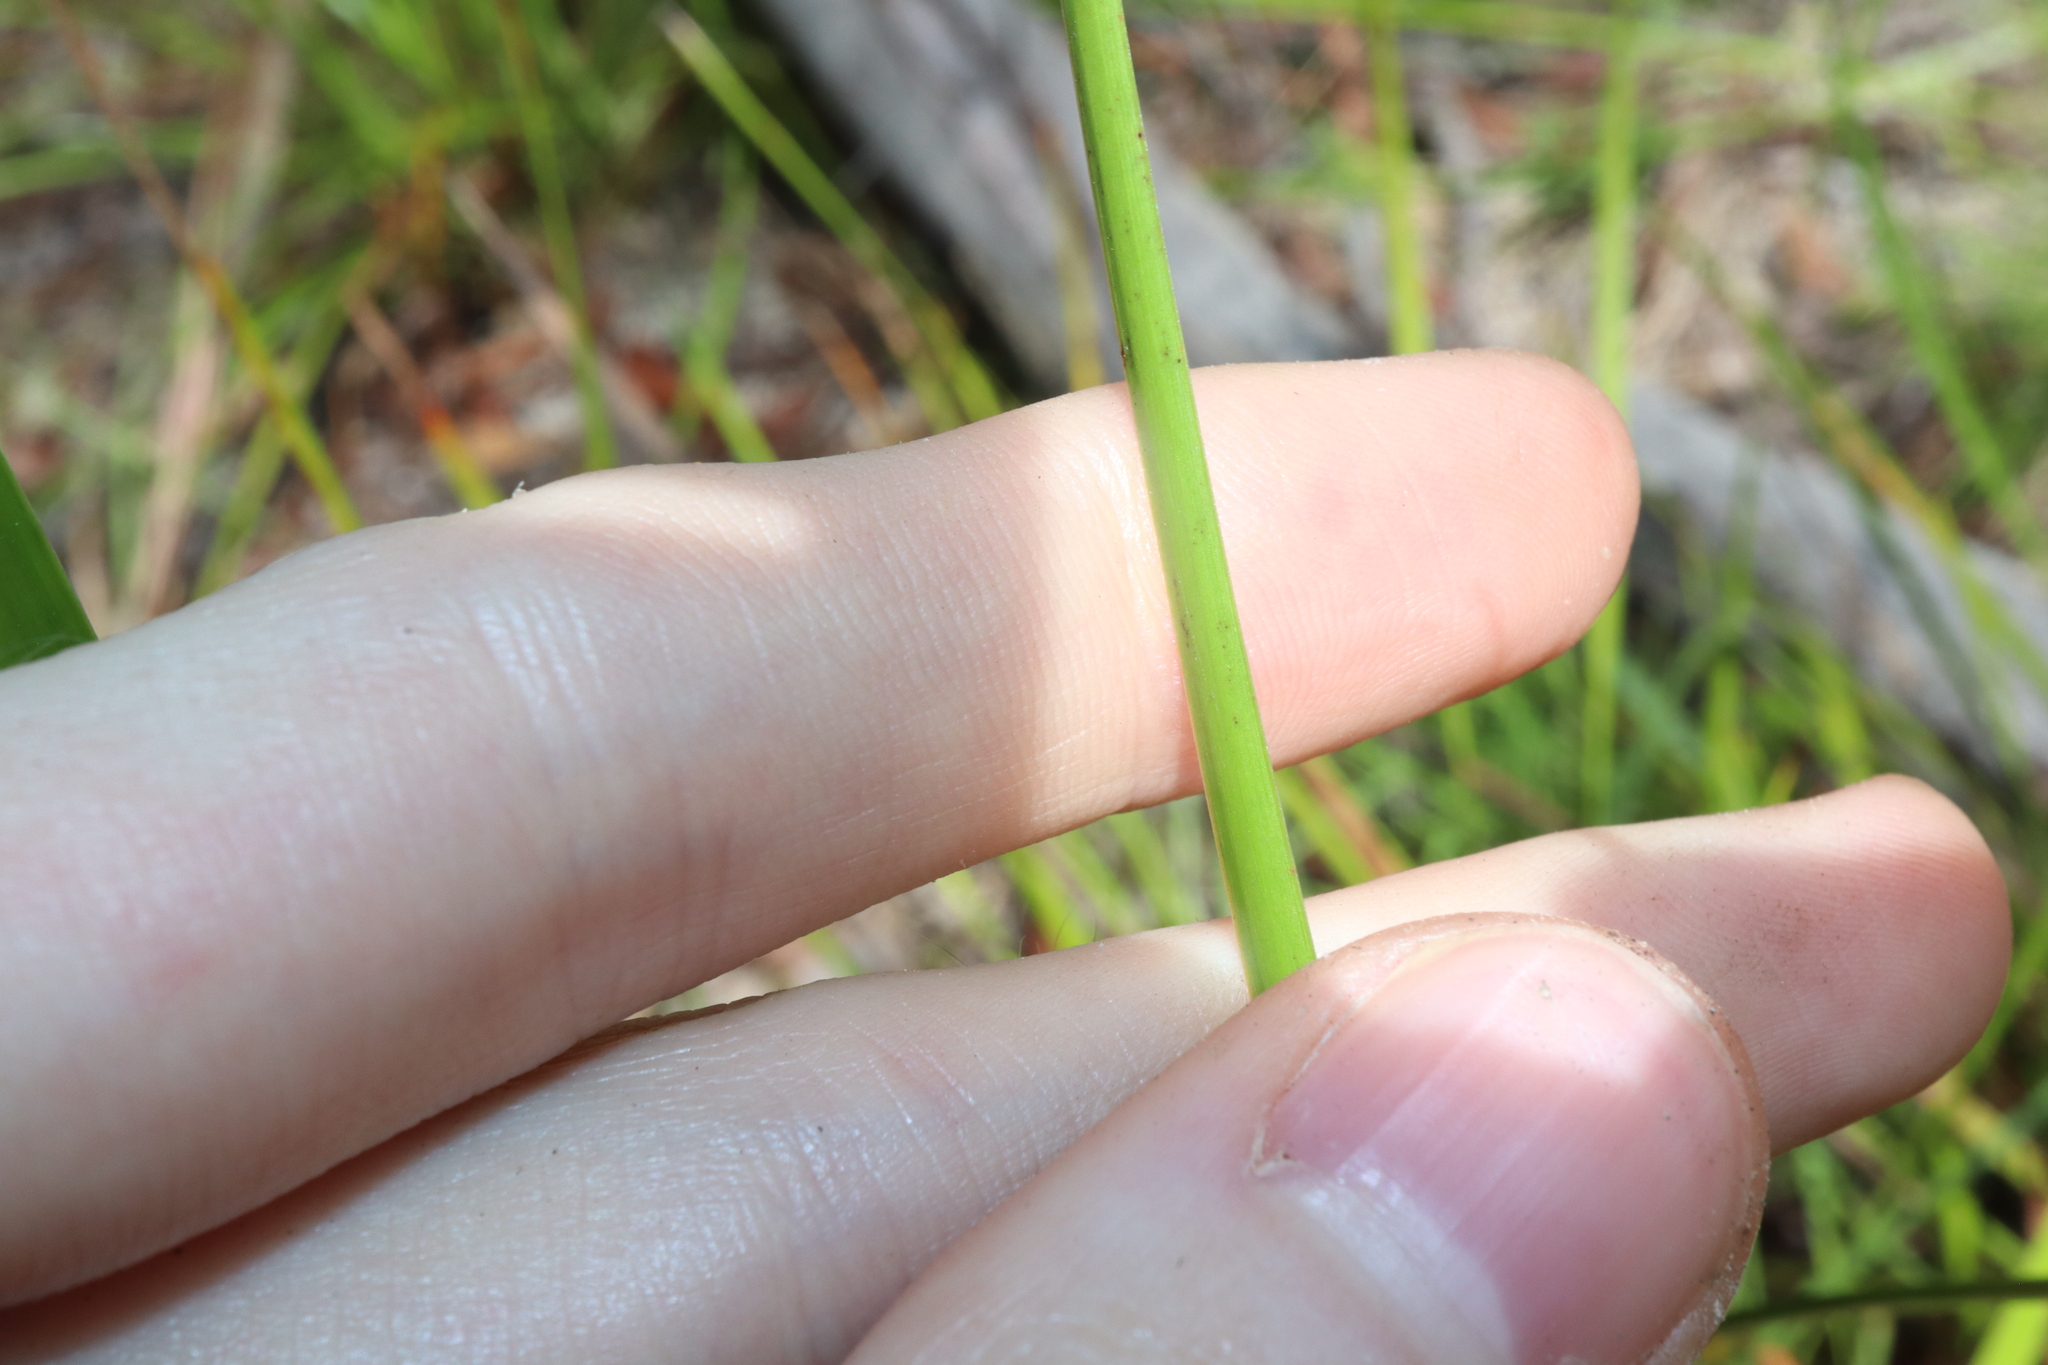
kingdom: Plantae
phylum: Tracheophyta
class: Liliopsida
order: Poales
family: Cyperaceae
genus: Lepidosperma
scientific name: Lepidosperma laterale
